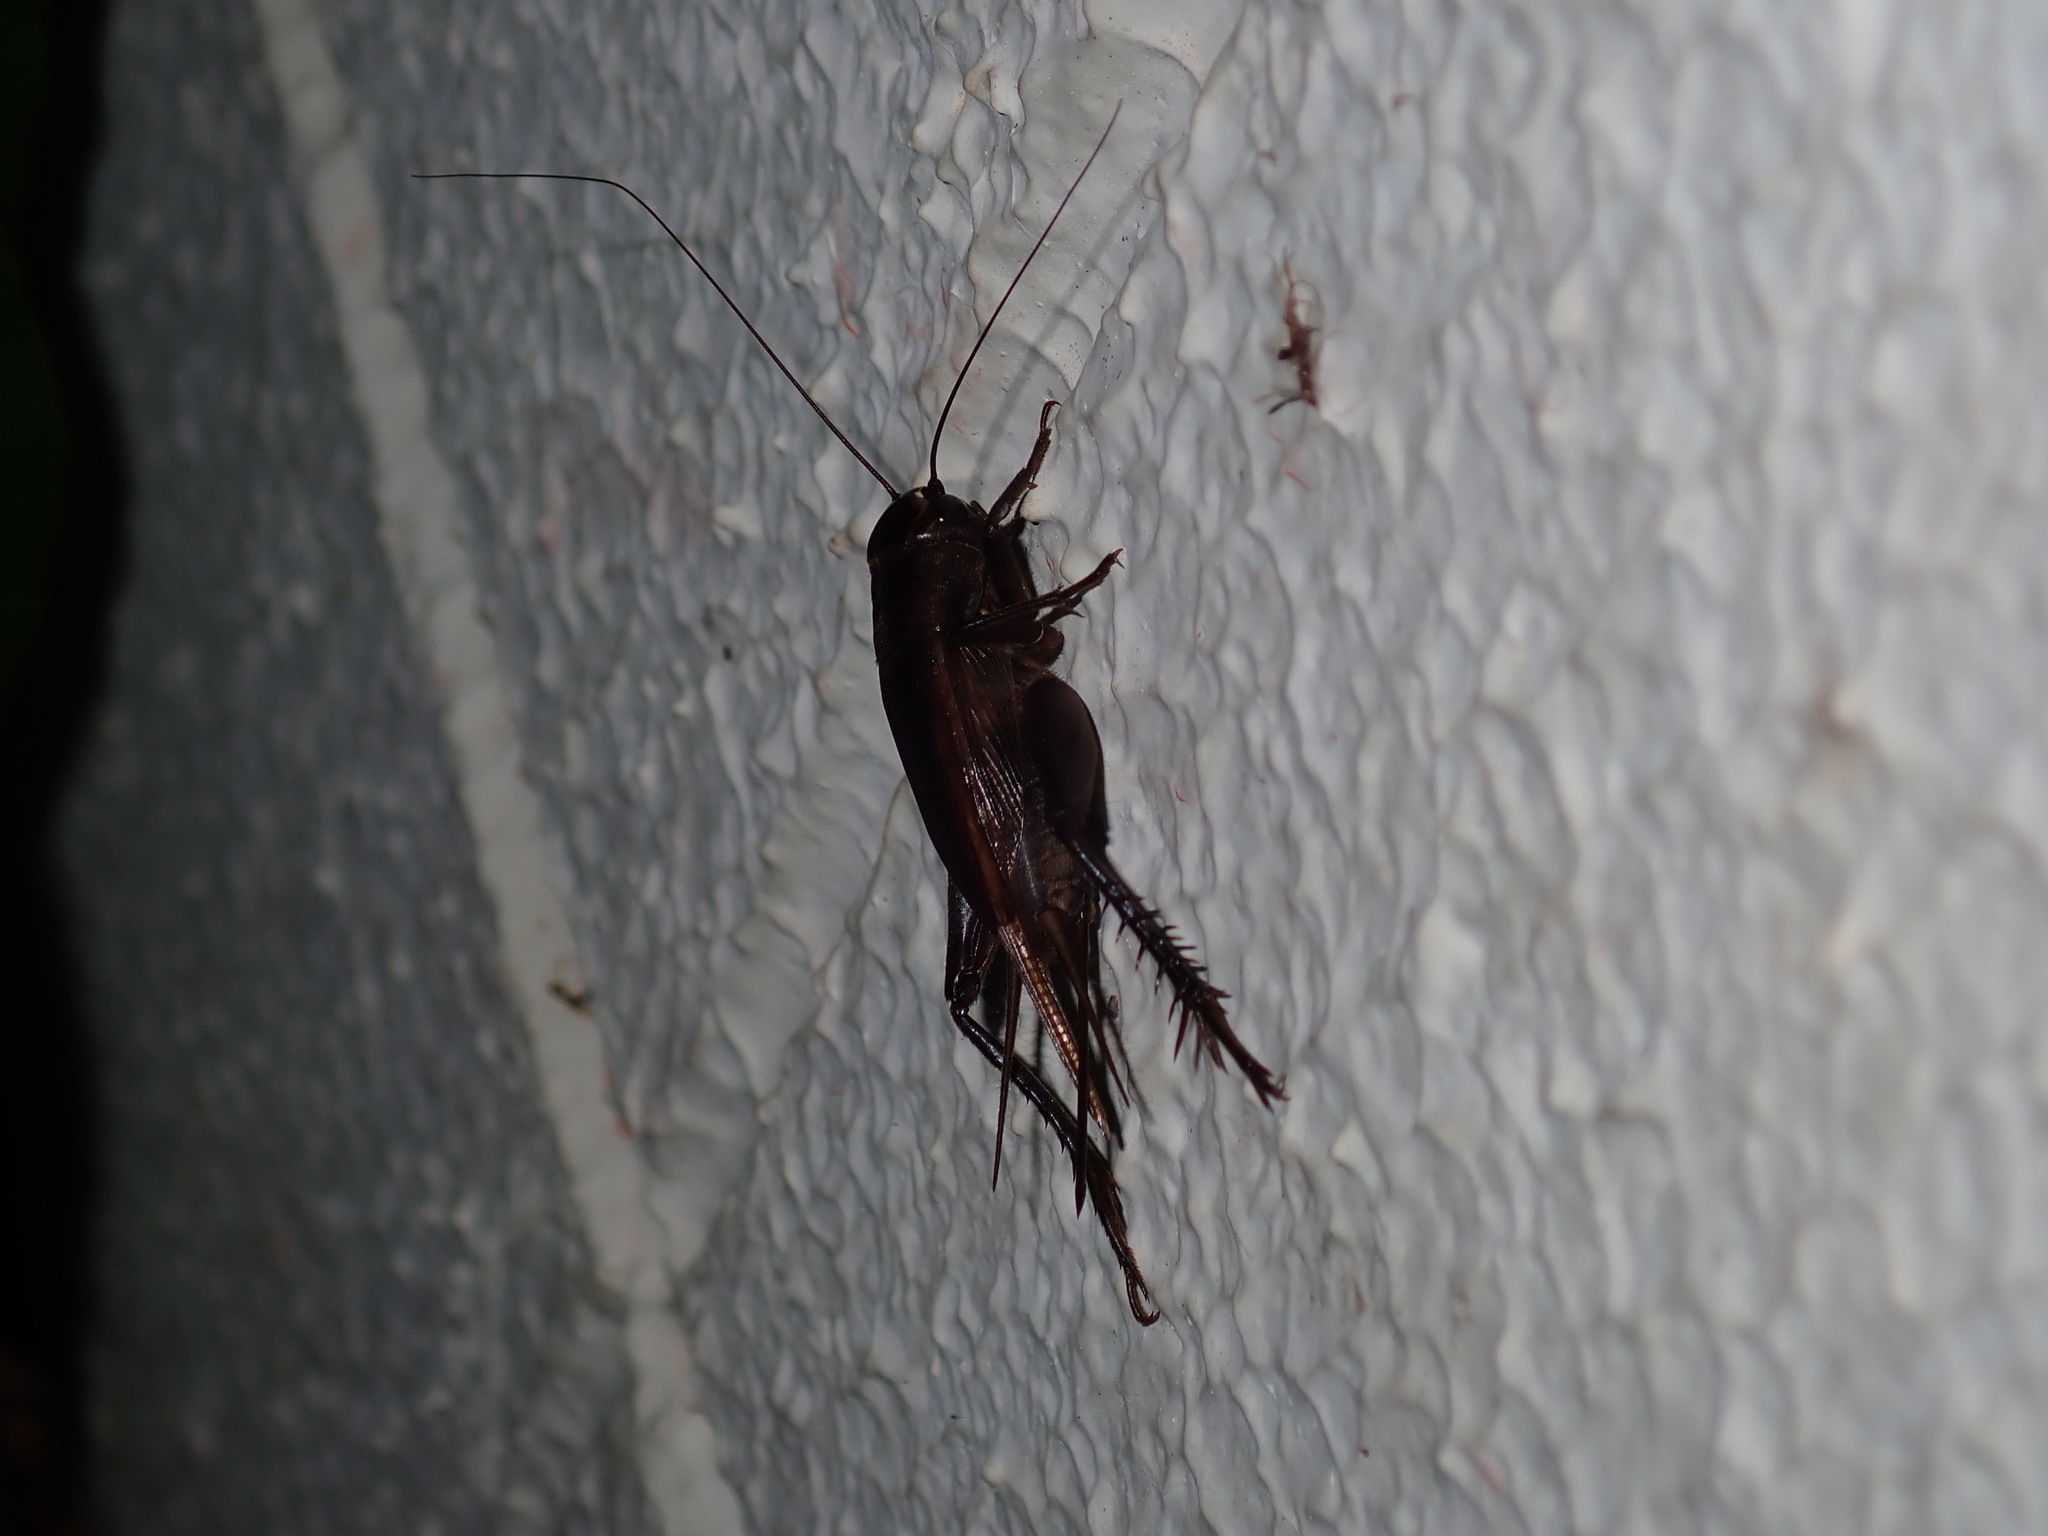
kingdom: Animalia
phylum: Arthropoda
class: Insecta
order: Orthoptera
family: Gryllidae
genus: Teleogryllus
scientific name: Teleogryllus oceanicus
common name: Oceanic field cricket
